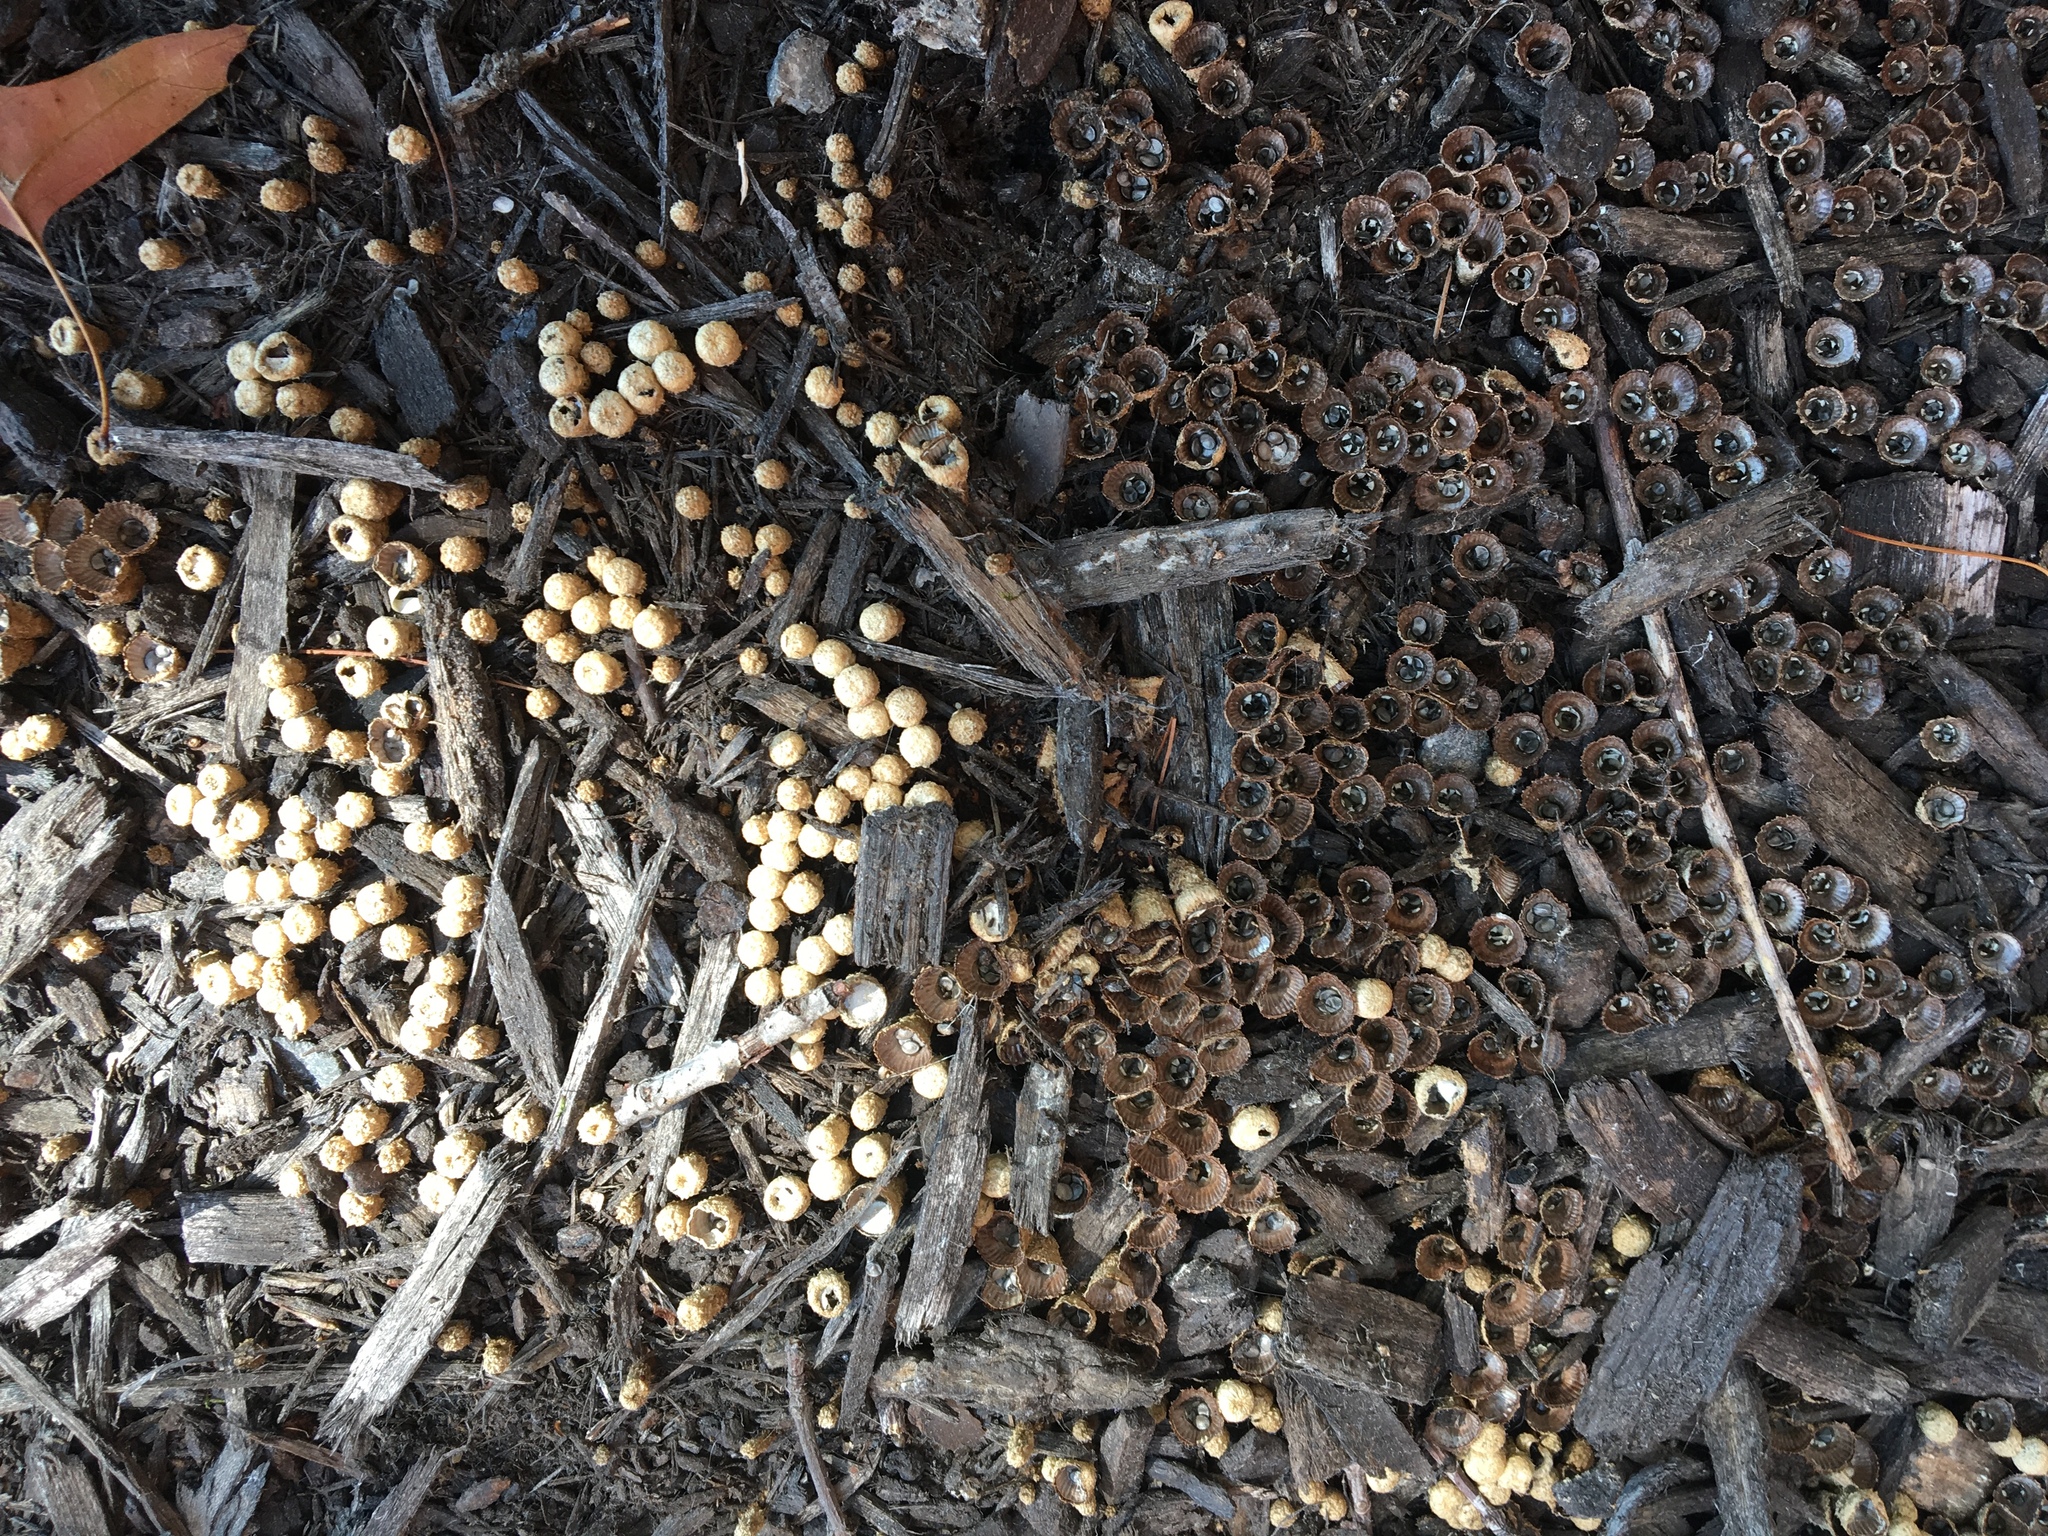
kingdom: Fungi
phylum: Basidiomycota
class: Agaricomycetes
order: Agaricales
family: Agaricaceae
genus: Cyathus
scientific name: Cyathus striatus
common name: Fluted bird's nest
